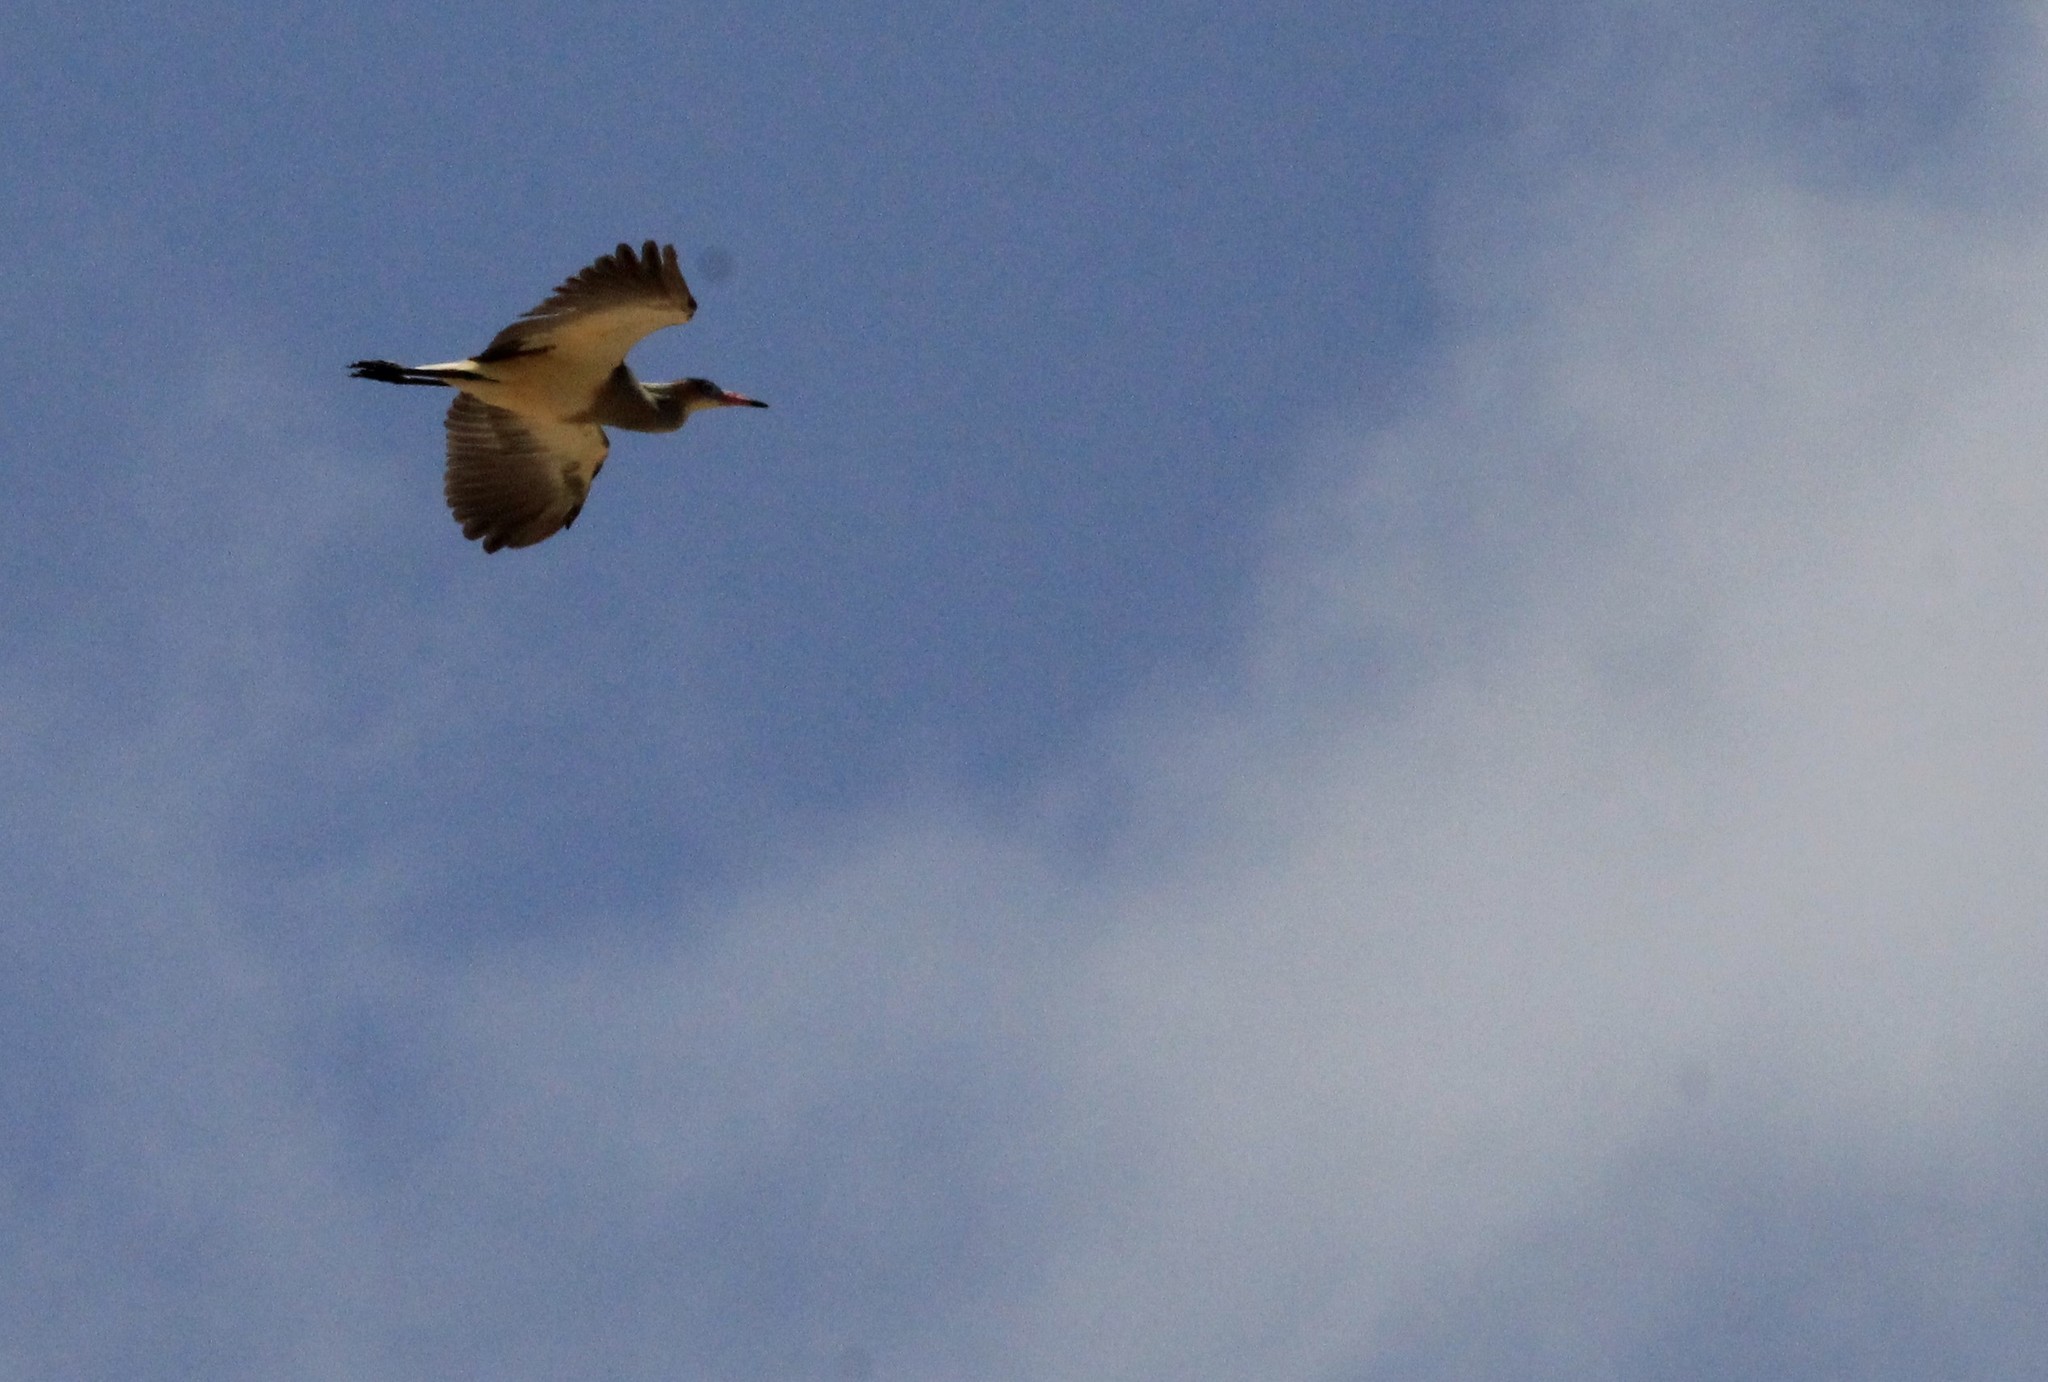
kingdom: Animalia
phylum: Chordata
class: Aves
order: Pelecaniformes
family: Ardeidae
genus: Syrigma
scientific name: Syrigma sibilatrix
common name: Whistling heron
